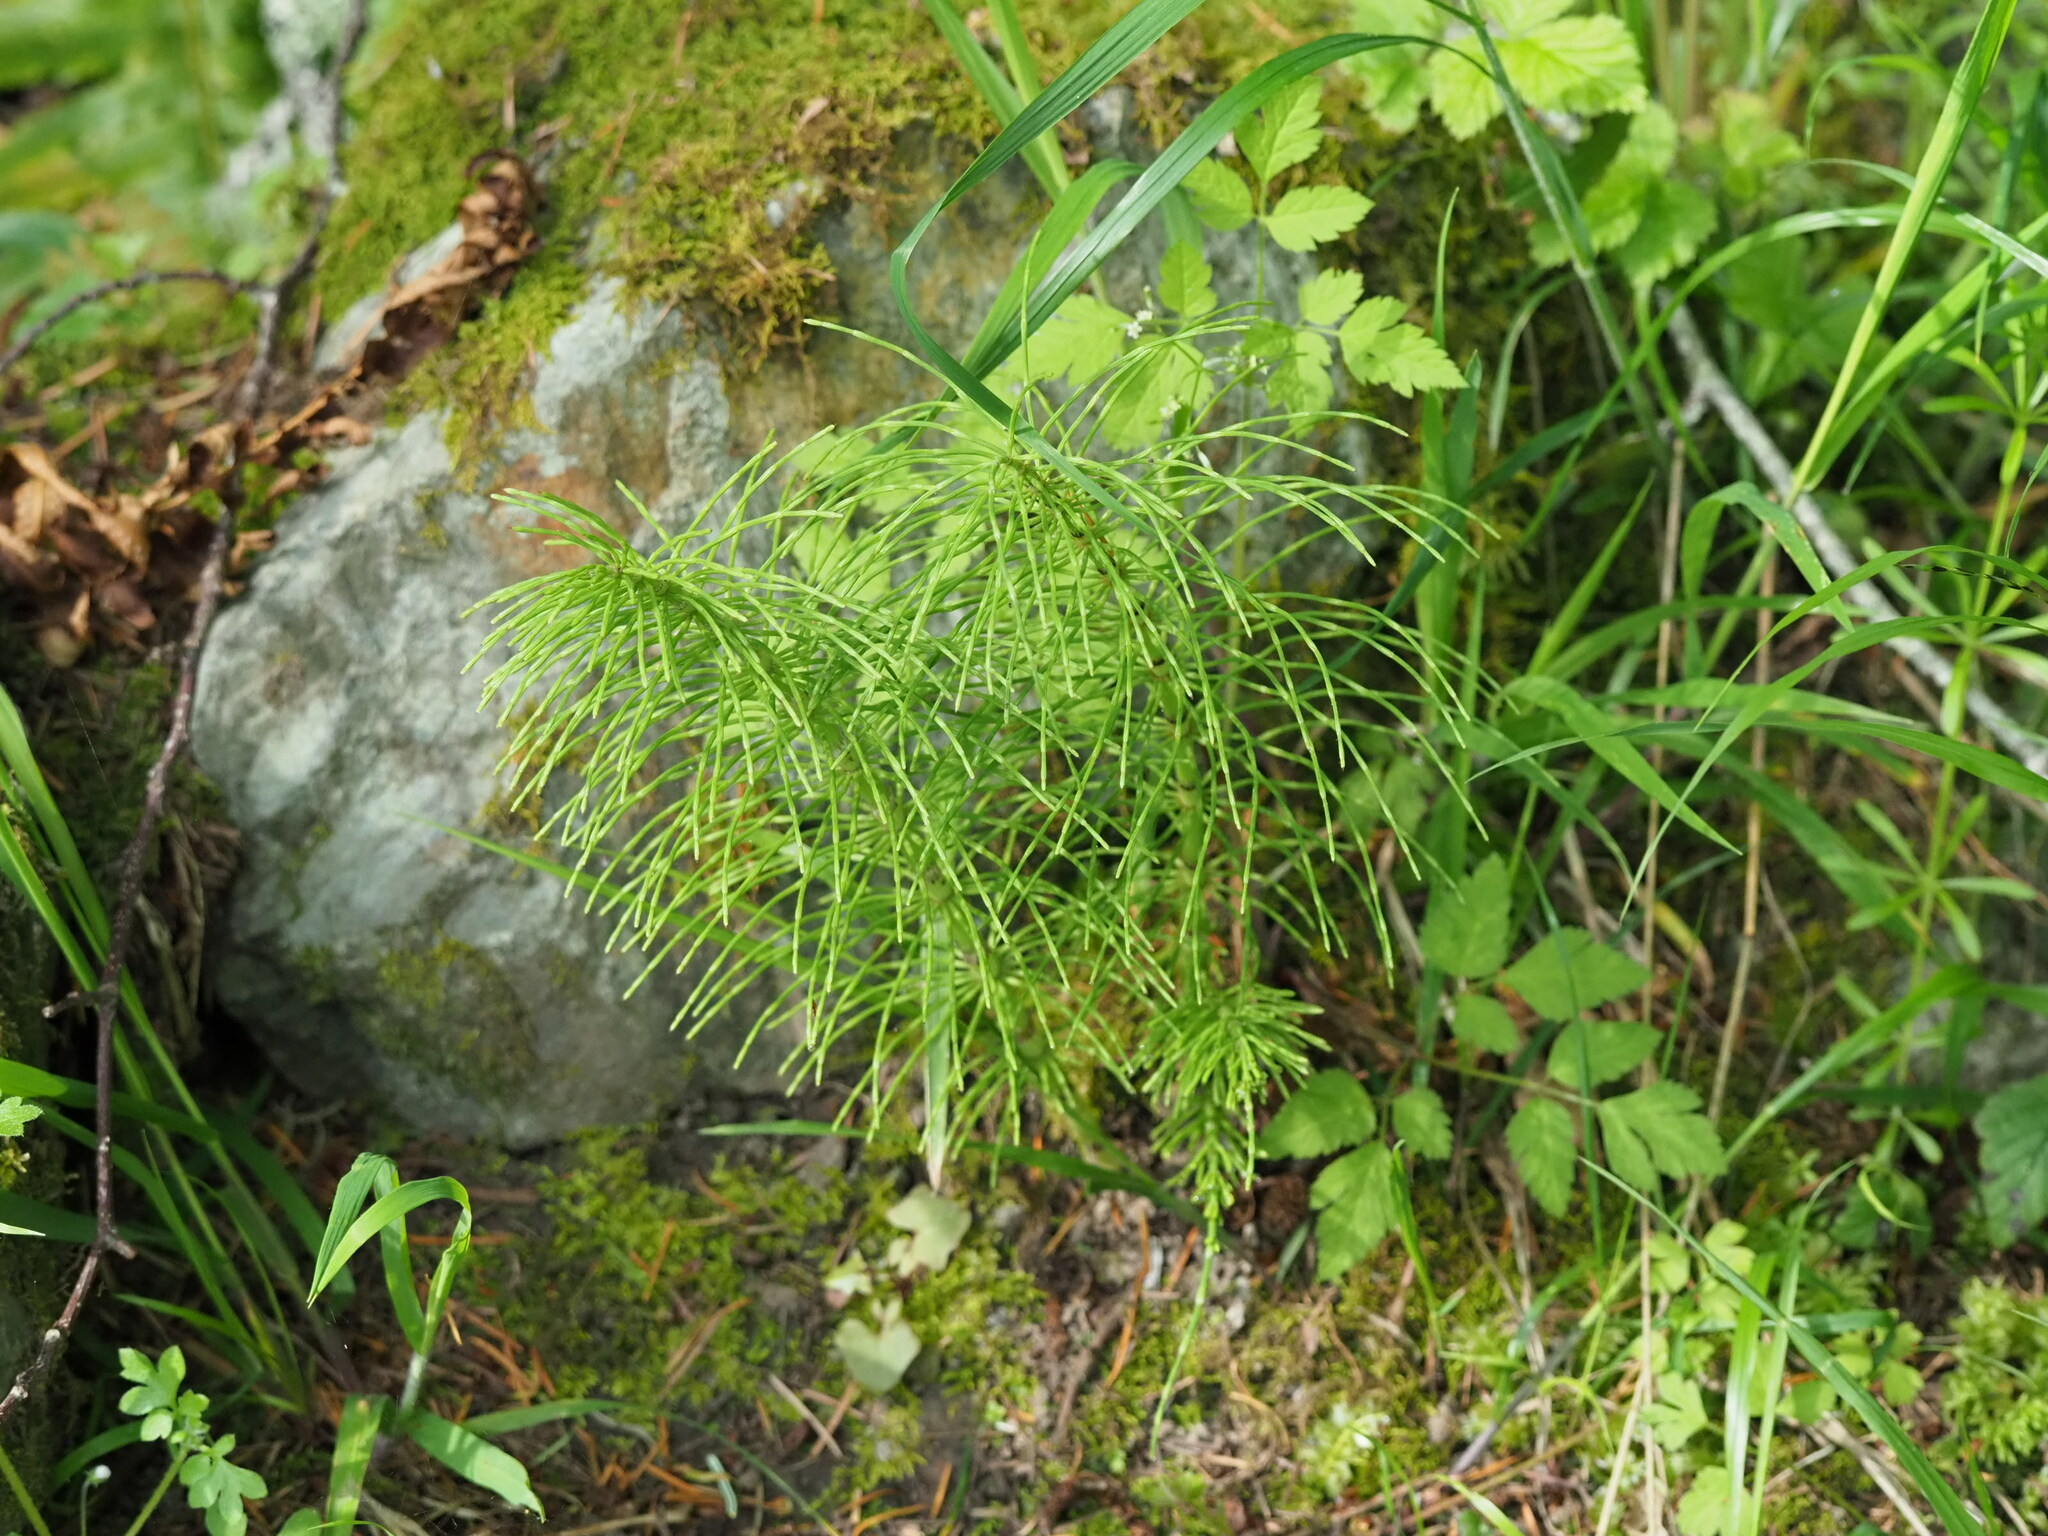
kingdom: Plantae
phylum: Tracheophyta
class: Polypodiopsida
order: Equisetales
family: Equisetaceae
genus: Equisetum
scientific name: Equisetum braunii
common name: Braun's horsetail
